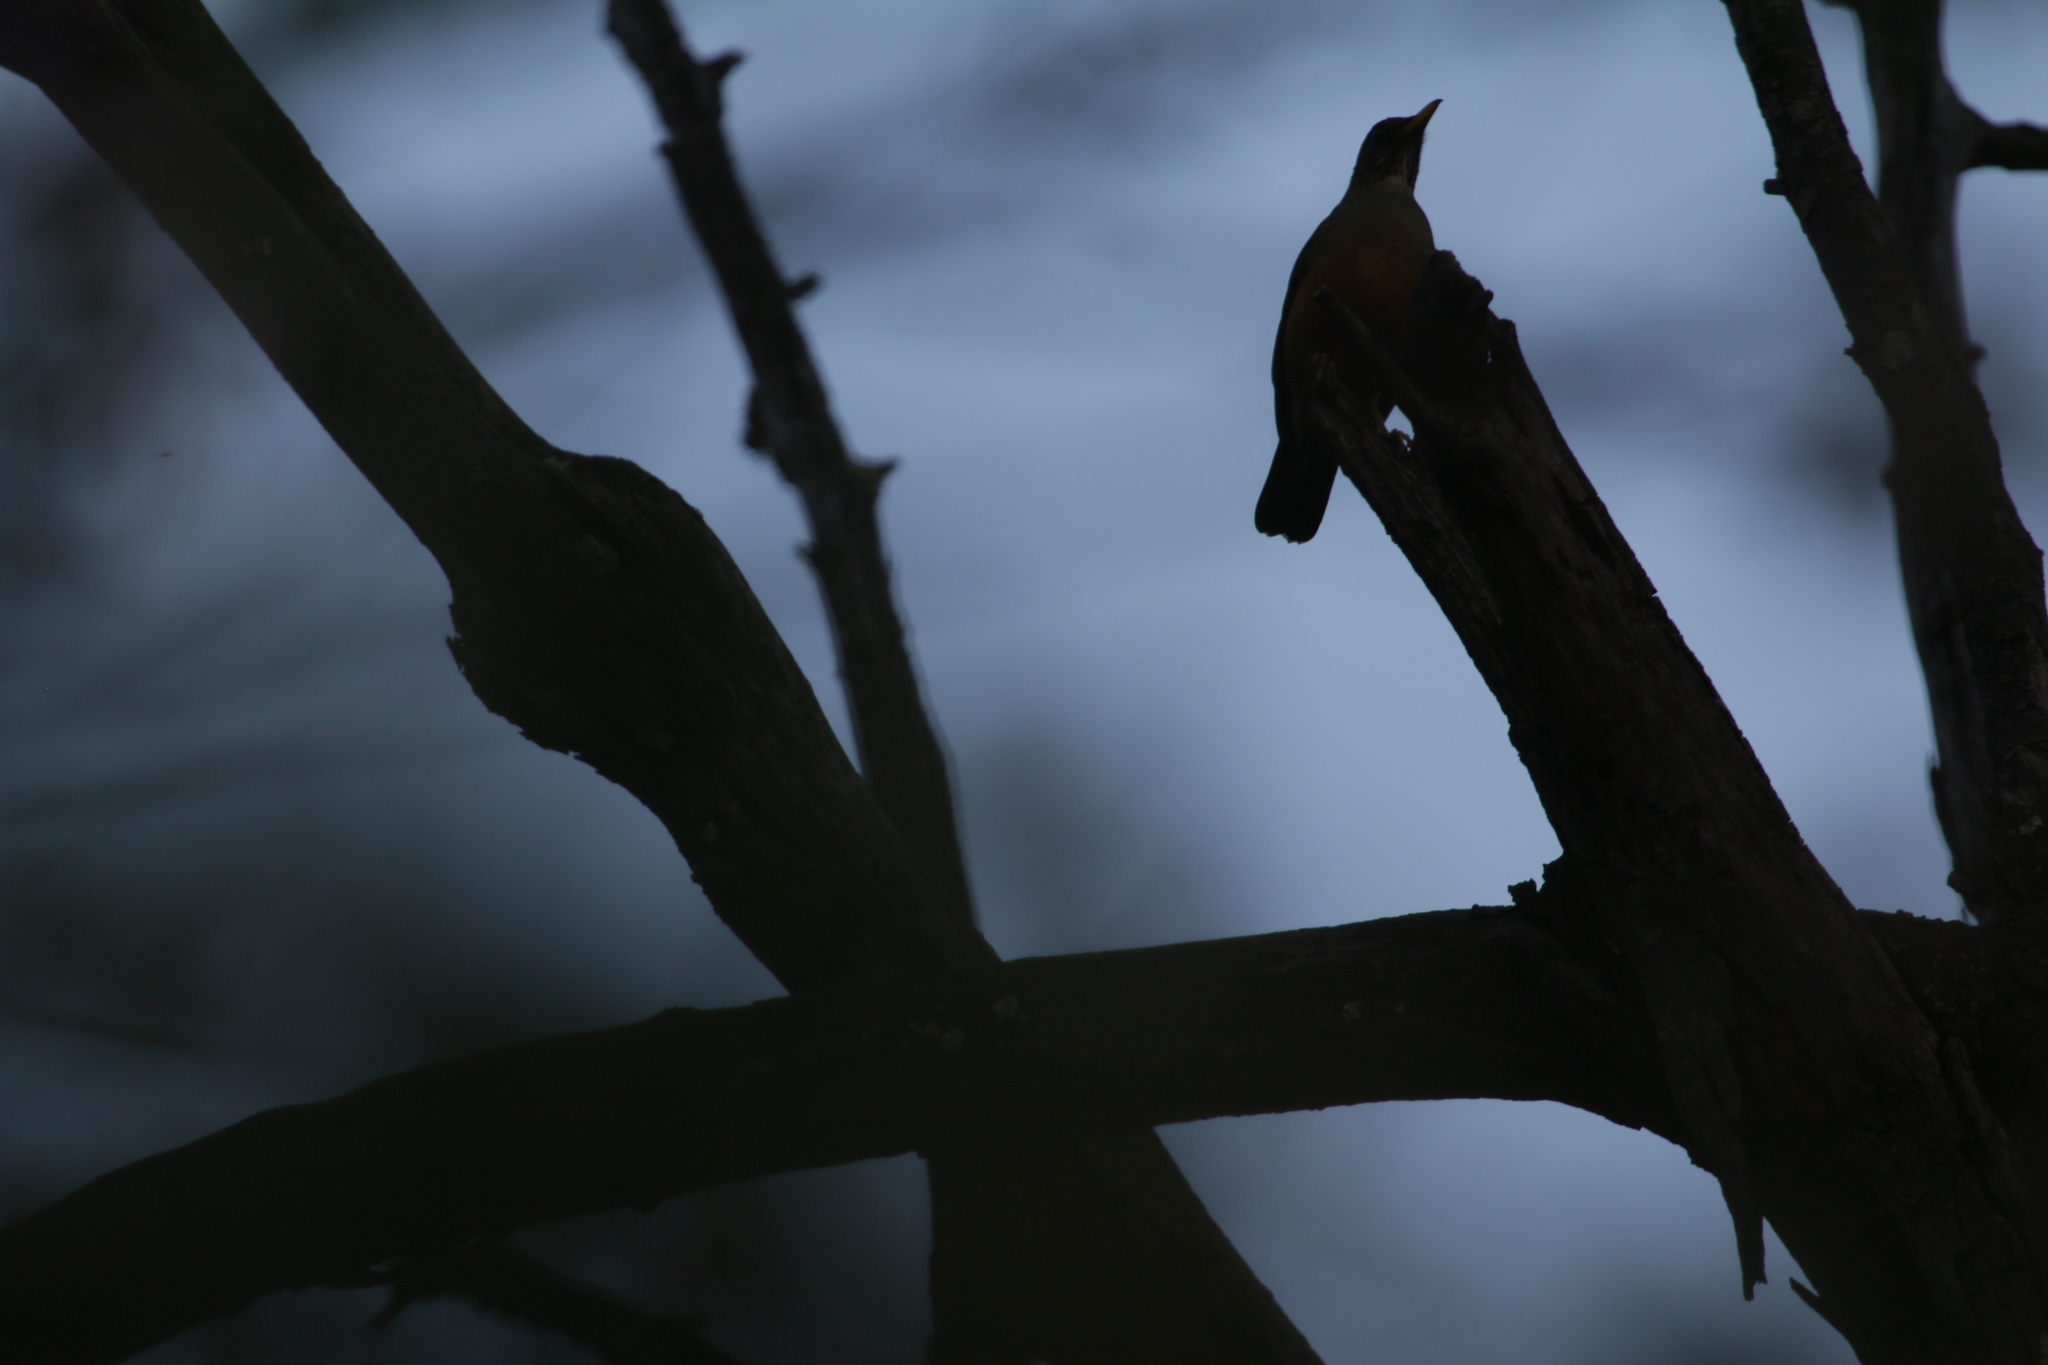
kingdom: Animalia
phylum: Chordata
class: Aves
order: Passeriformes
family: Turdidae
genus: Turdus
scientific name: Turdus olivaceus
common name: Olive thrush
